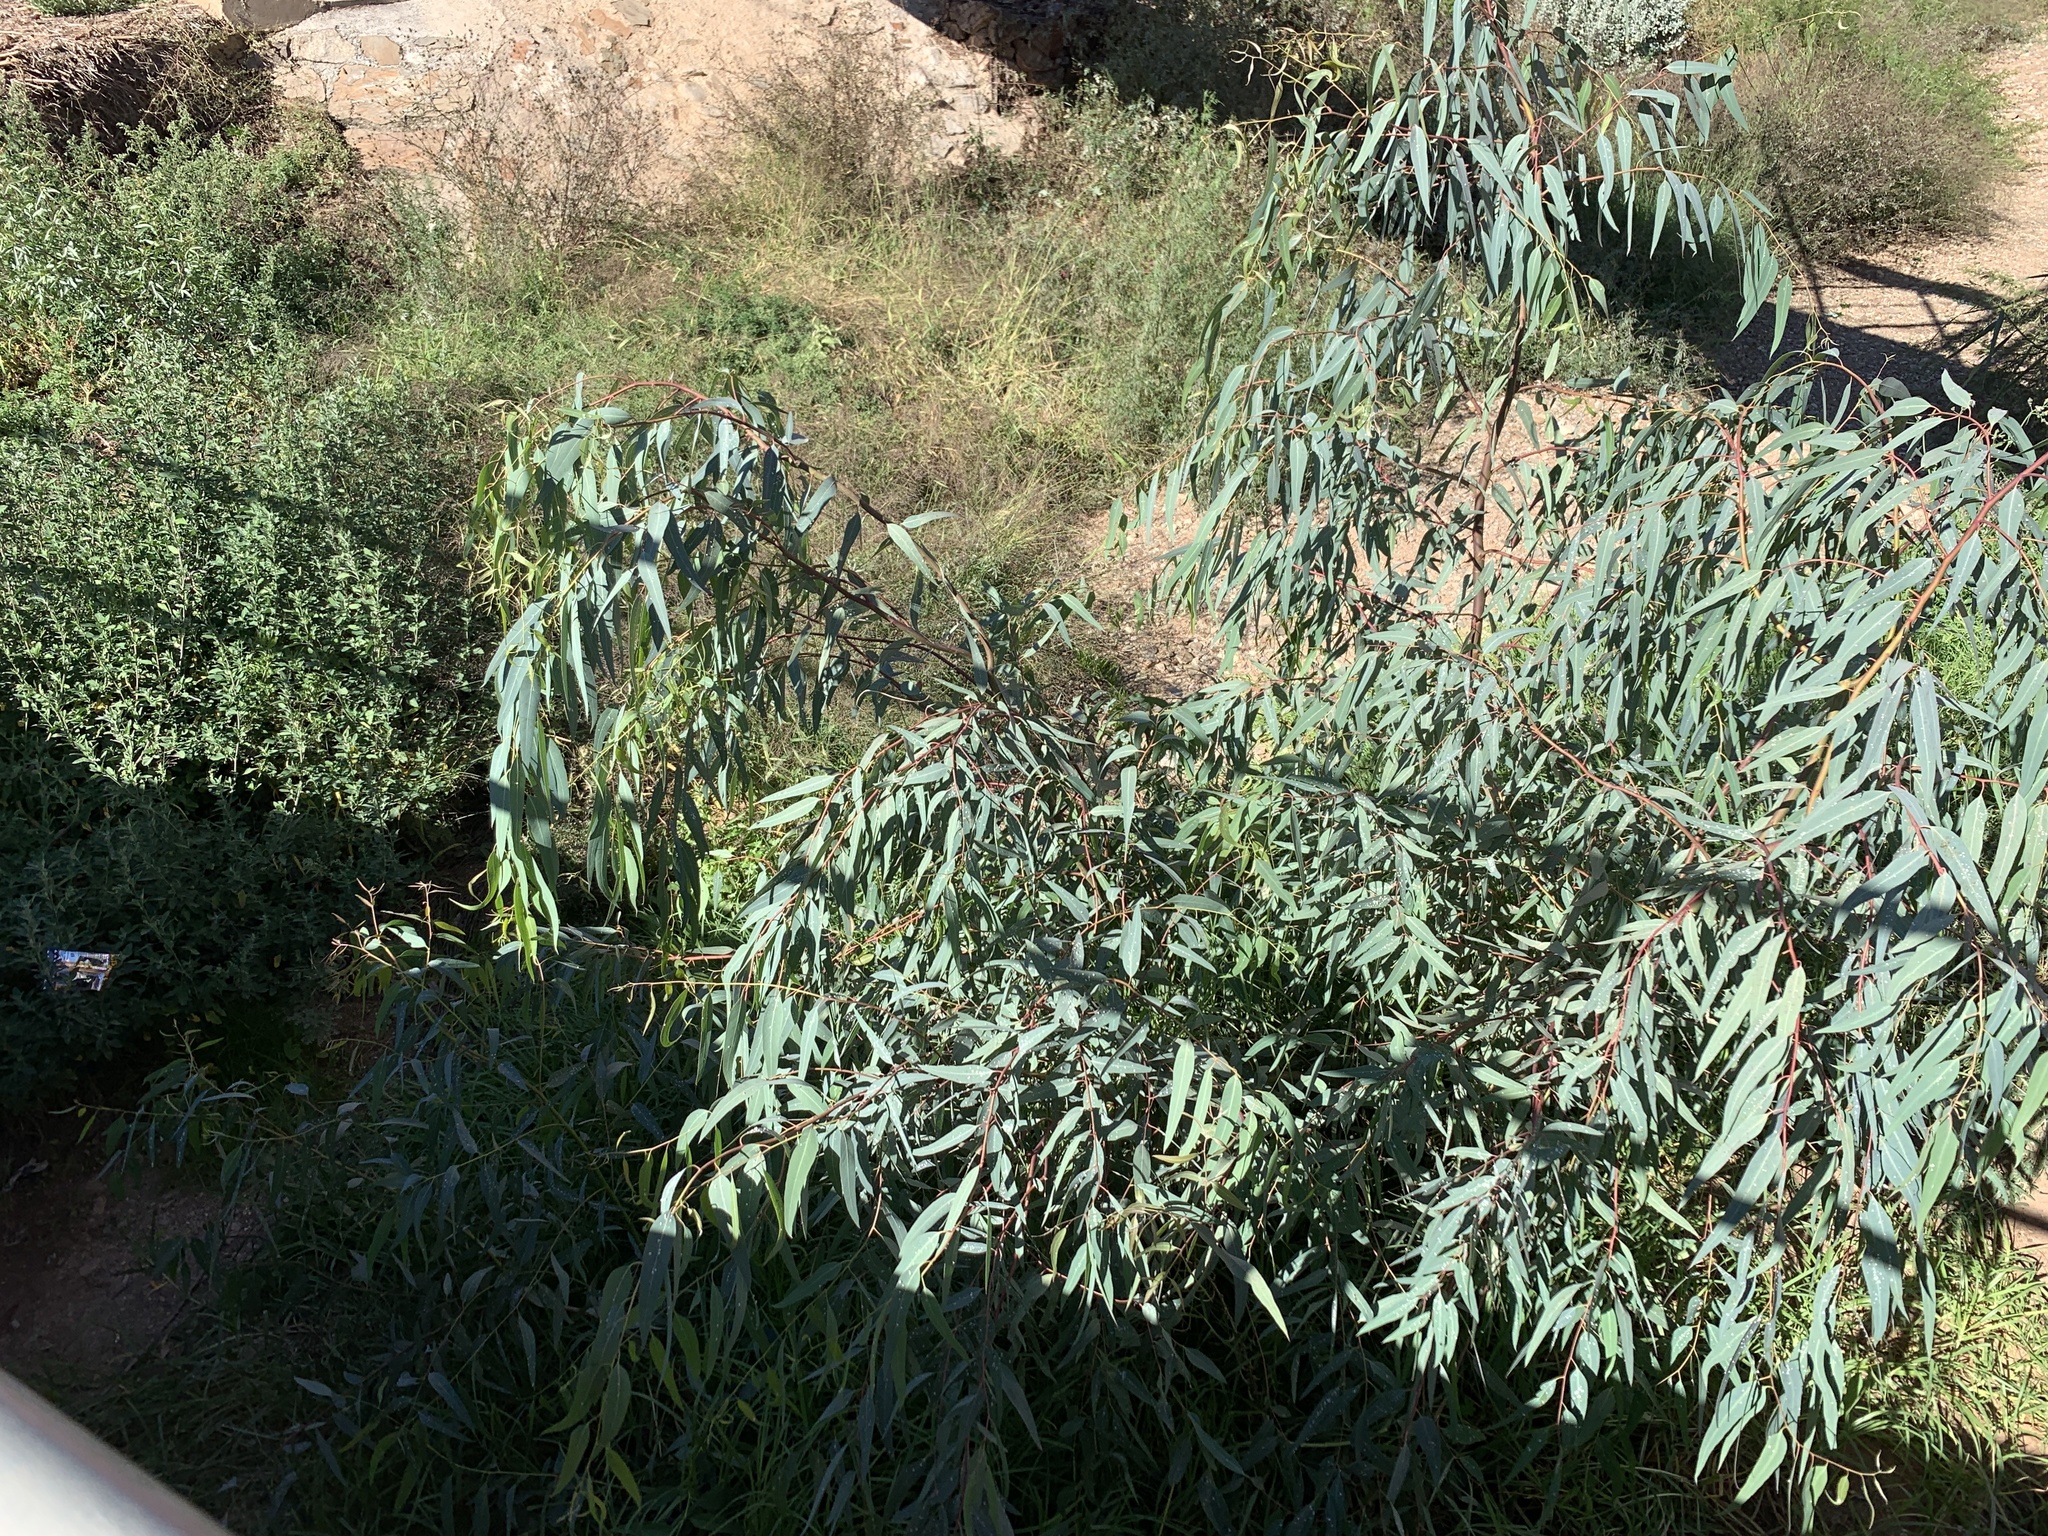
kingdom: Plantae
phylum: Tracheophyta
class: Magnoliopsida
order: Myrtales
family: Myrtaceae
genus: Eucalyptus
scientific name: Eucalyptus camaldulensis
